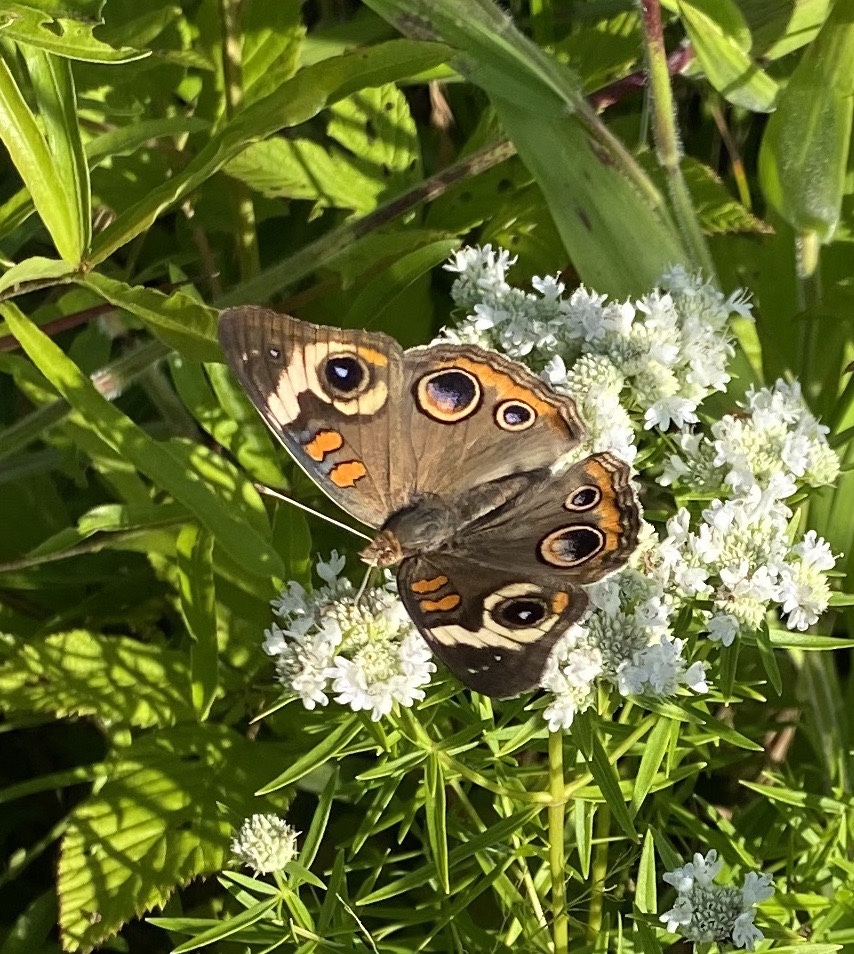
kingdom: Animalia
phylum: Arthropoda
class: Insecta
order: Lepidoptera
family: Nymphalidae
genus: Junonia
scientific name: Junonia coenia
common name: Common buckeye
